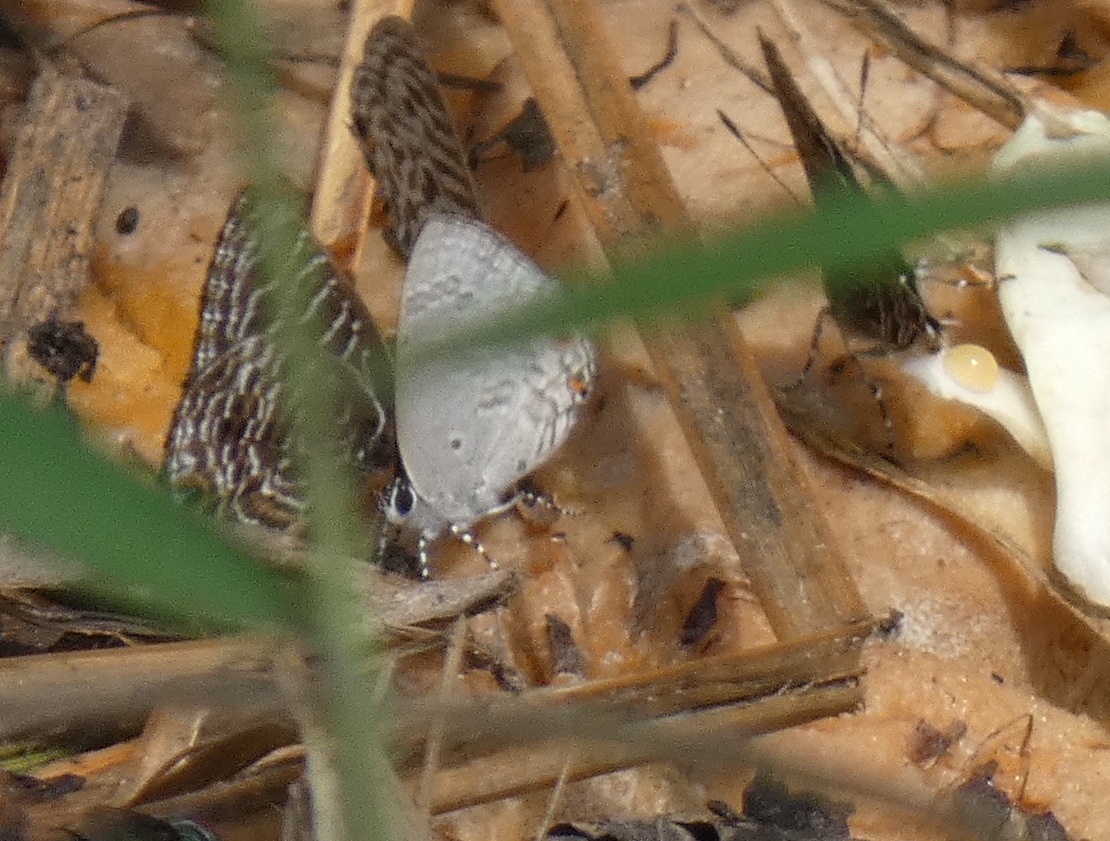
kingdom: Animalia
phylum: Arthropoda
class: Insecta
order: Lepidoptera
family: Lycaenidae
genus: Anthene
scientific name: Anthene liodes
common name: Liodes hairtail
